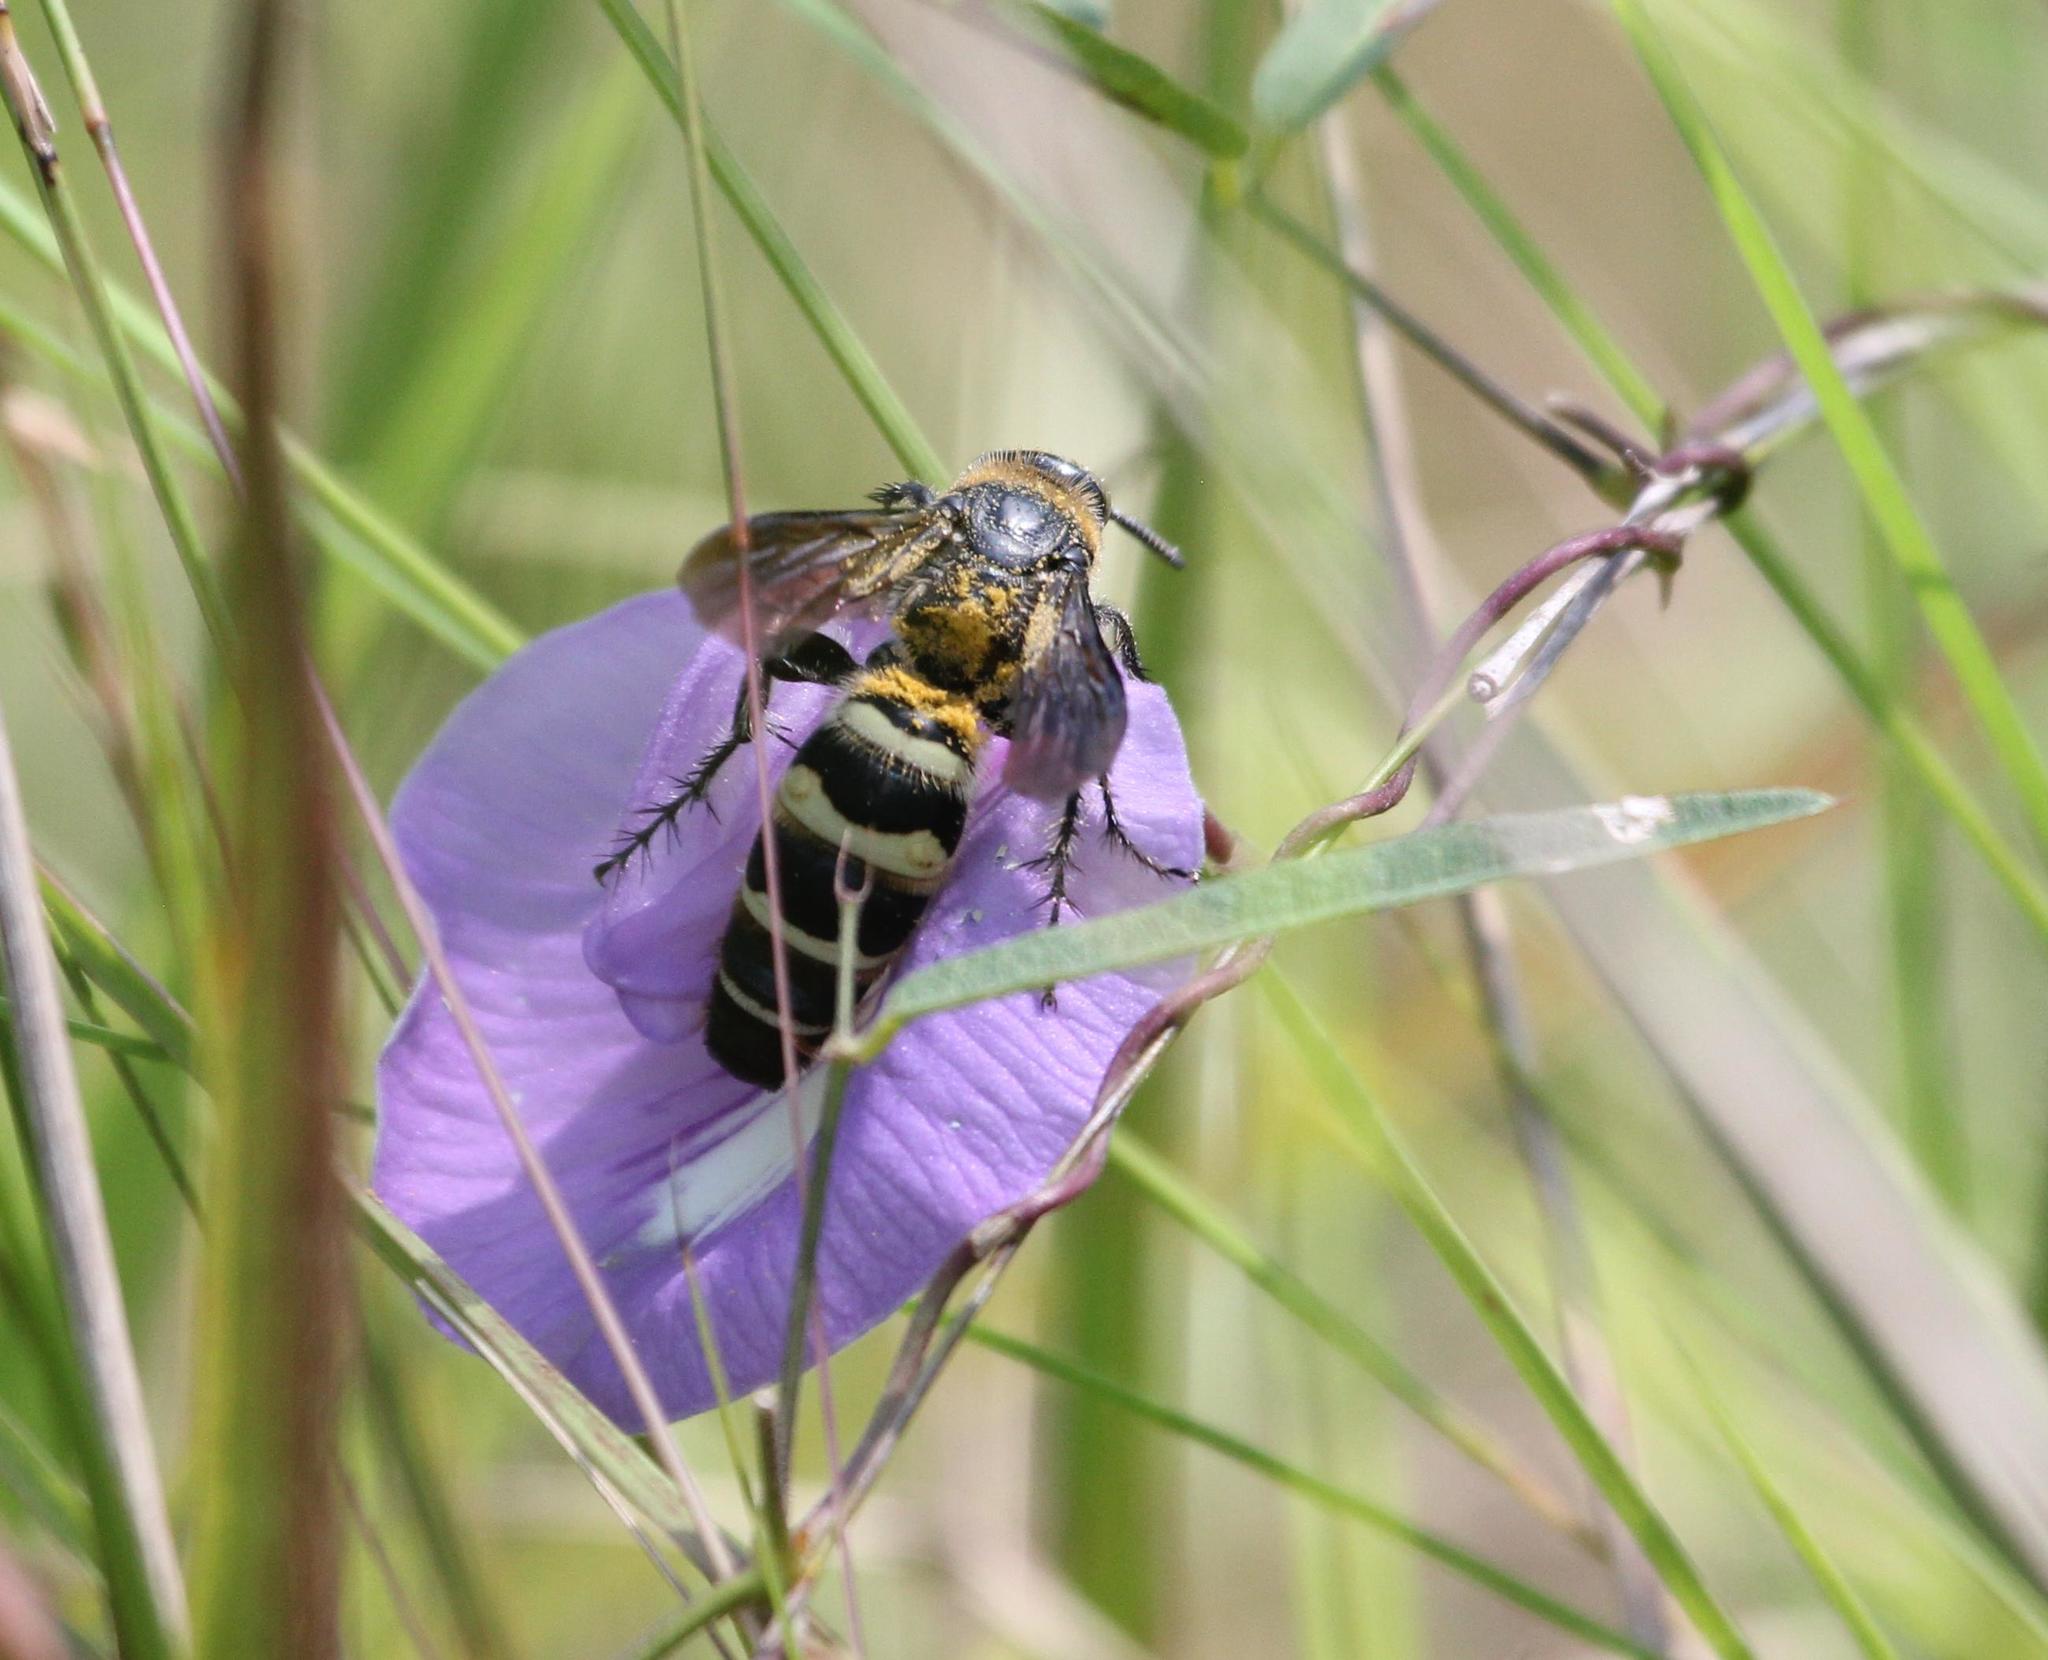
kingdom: Animalia
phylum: Arthropoda
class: Insecta
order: Hymenoptera
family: Scoliidae
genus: Dielis
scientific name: Dielis
